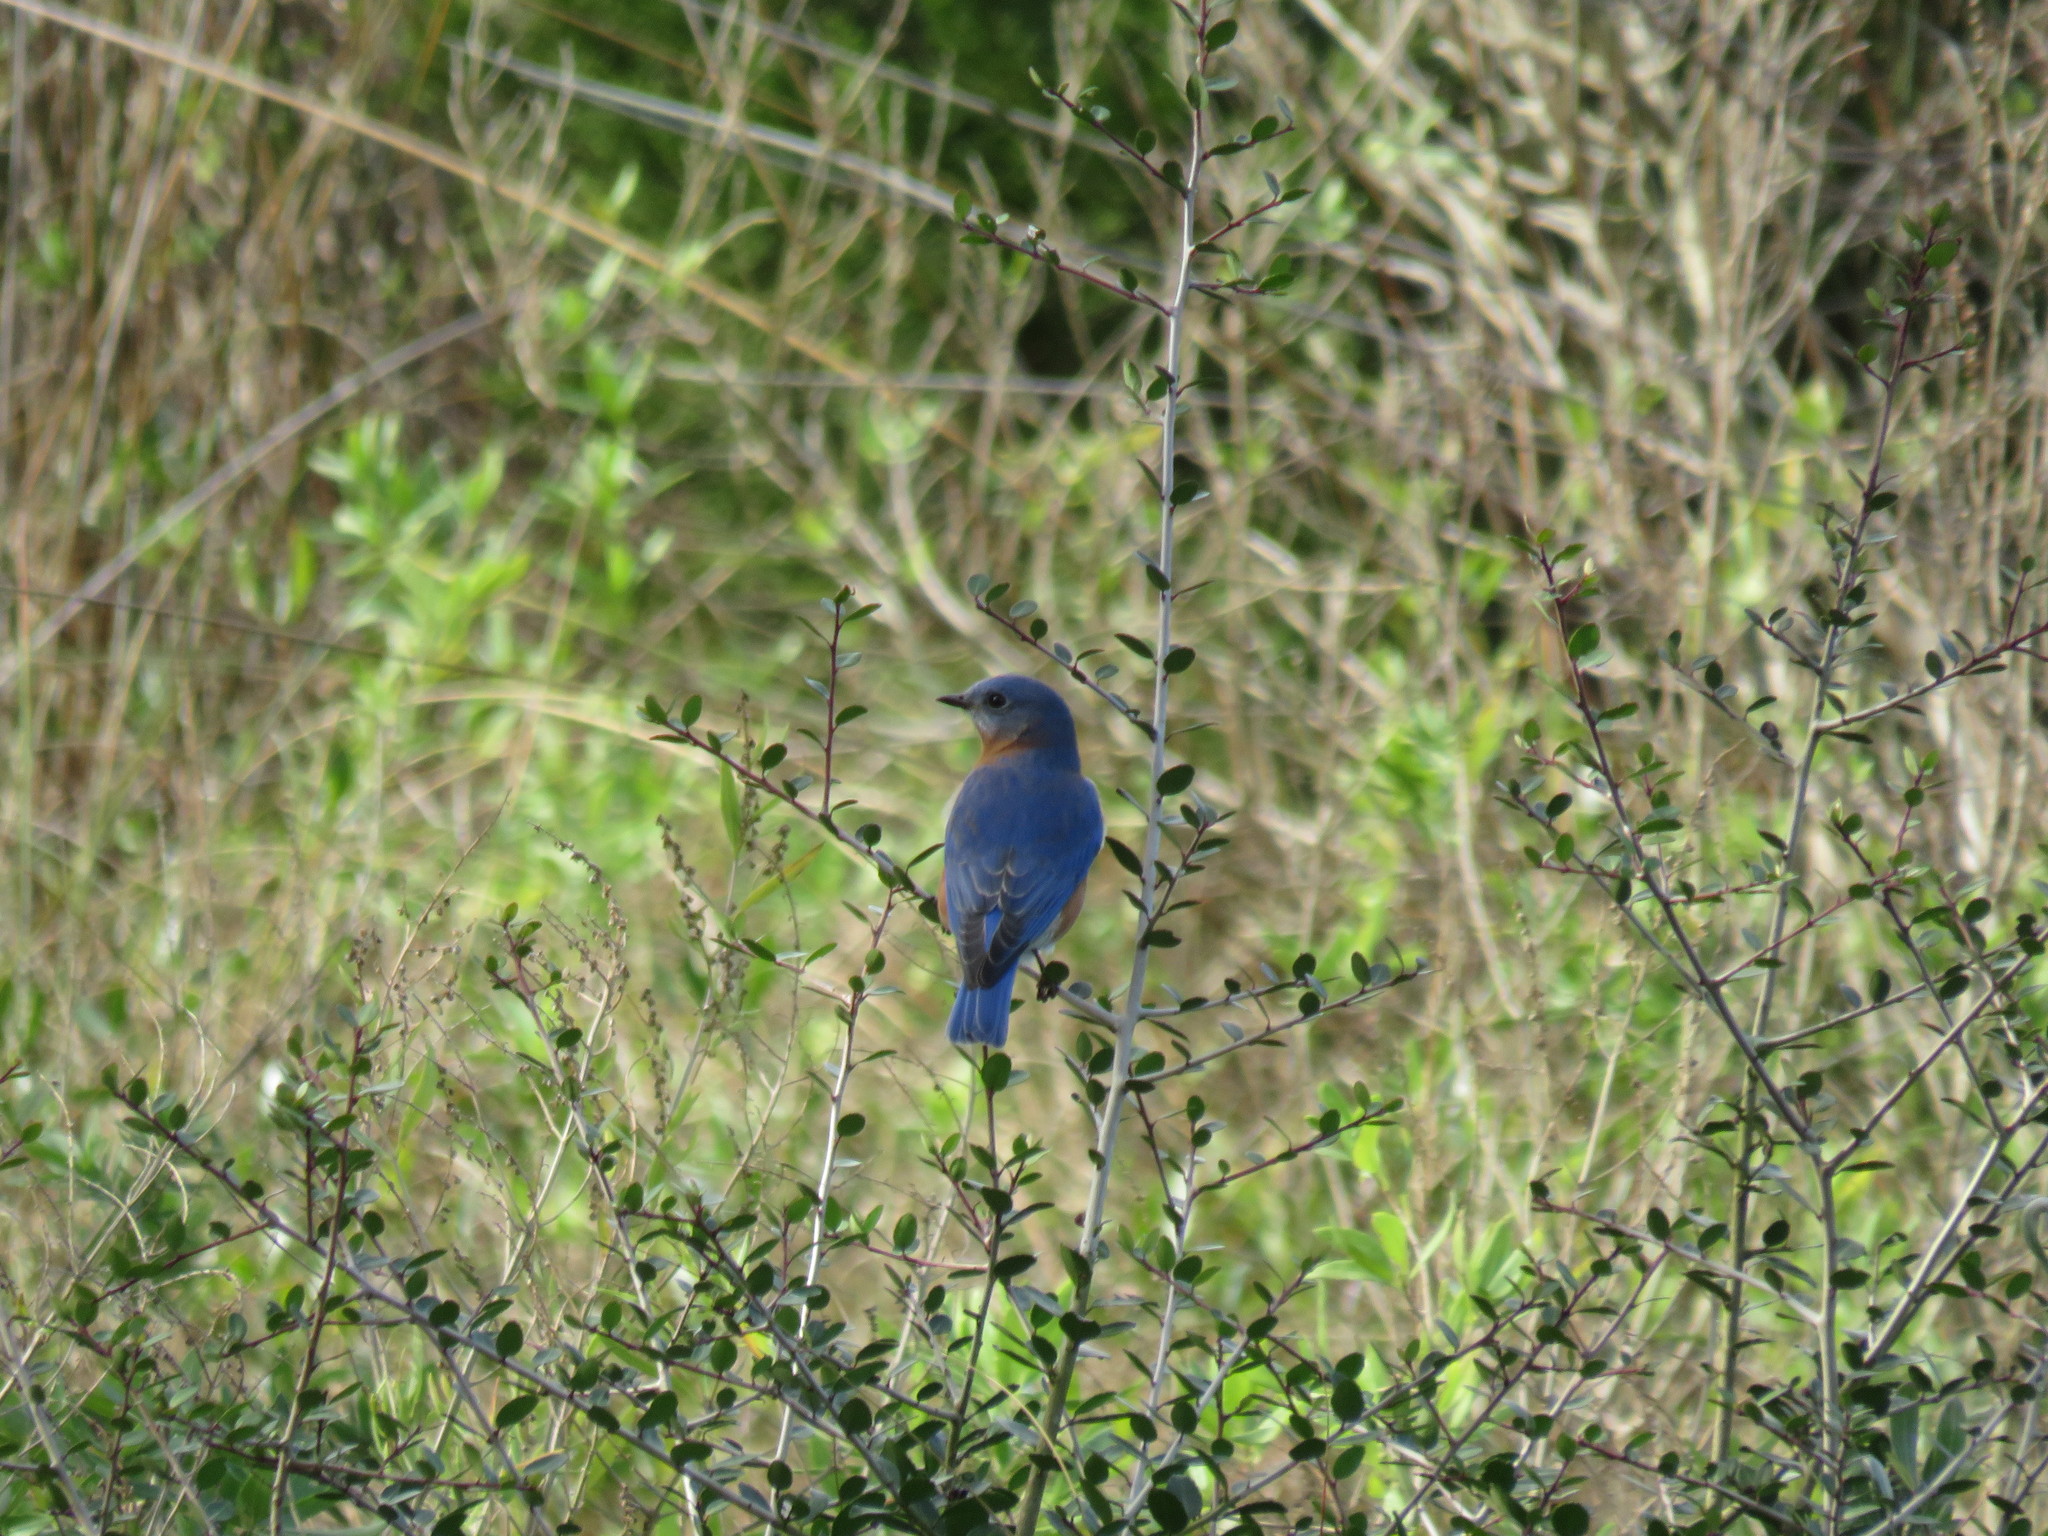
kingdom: Animalia
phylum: Chordata
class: Aves
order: Passeriformes
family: Turdidae
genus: Sialia
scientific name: Sialia sialis
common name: Eastern bluebird
